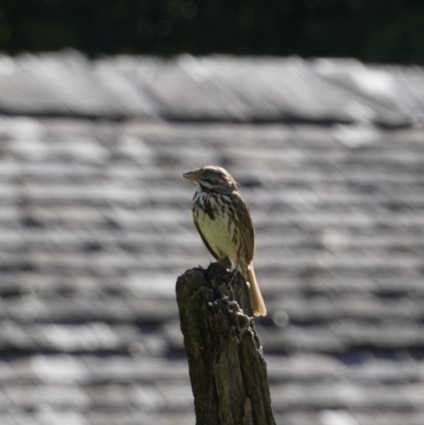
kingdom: Animalia
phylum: Chordata
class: Aves
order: Passeriformes
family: Passerellidae
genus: Melospiza
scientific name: Melospiza melodia
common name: Song sparrow
